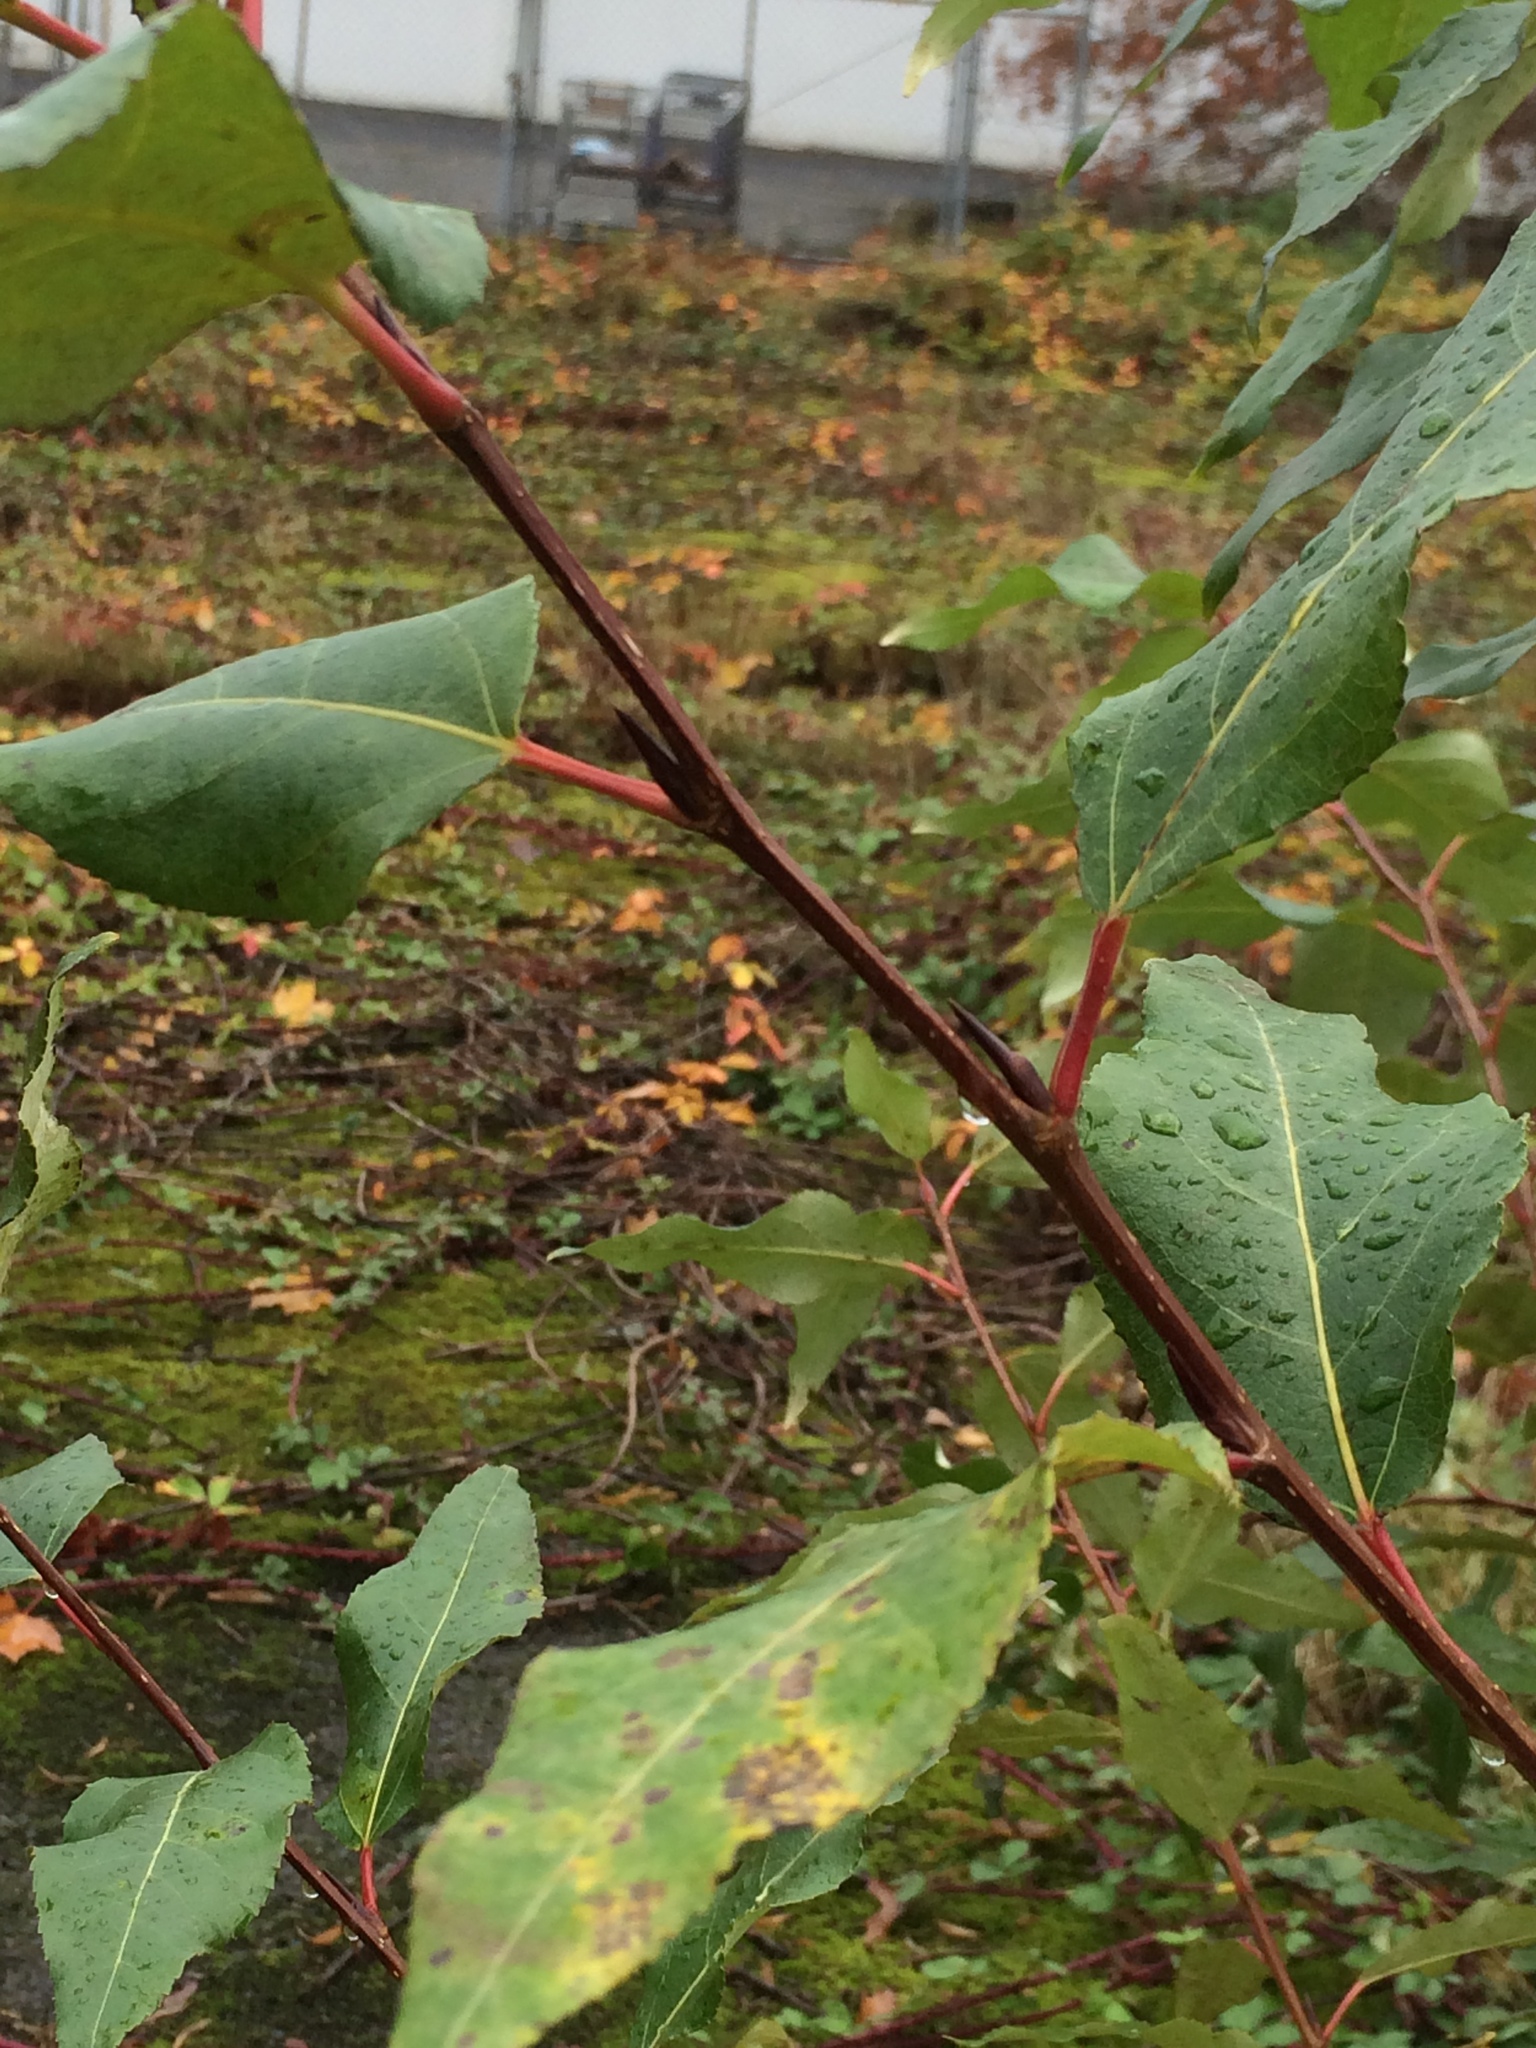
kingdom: Plantae
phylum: Tracheophyta
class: Magnoliopsida
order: Malpighiales
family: Salicaceae
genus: Populus
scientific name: Populus trichocarpa
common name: Black cottonwood
